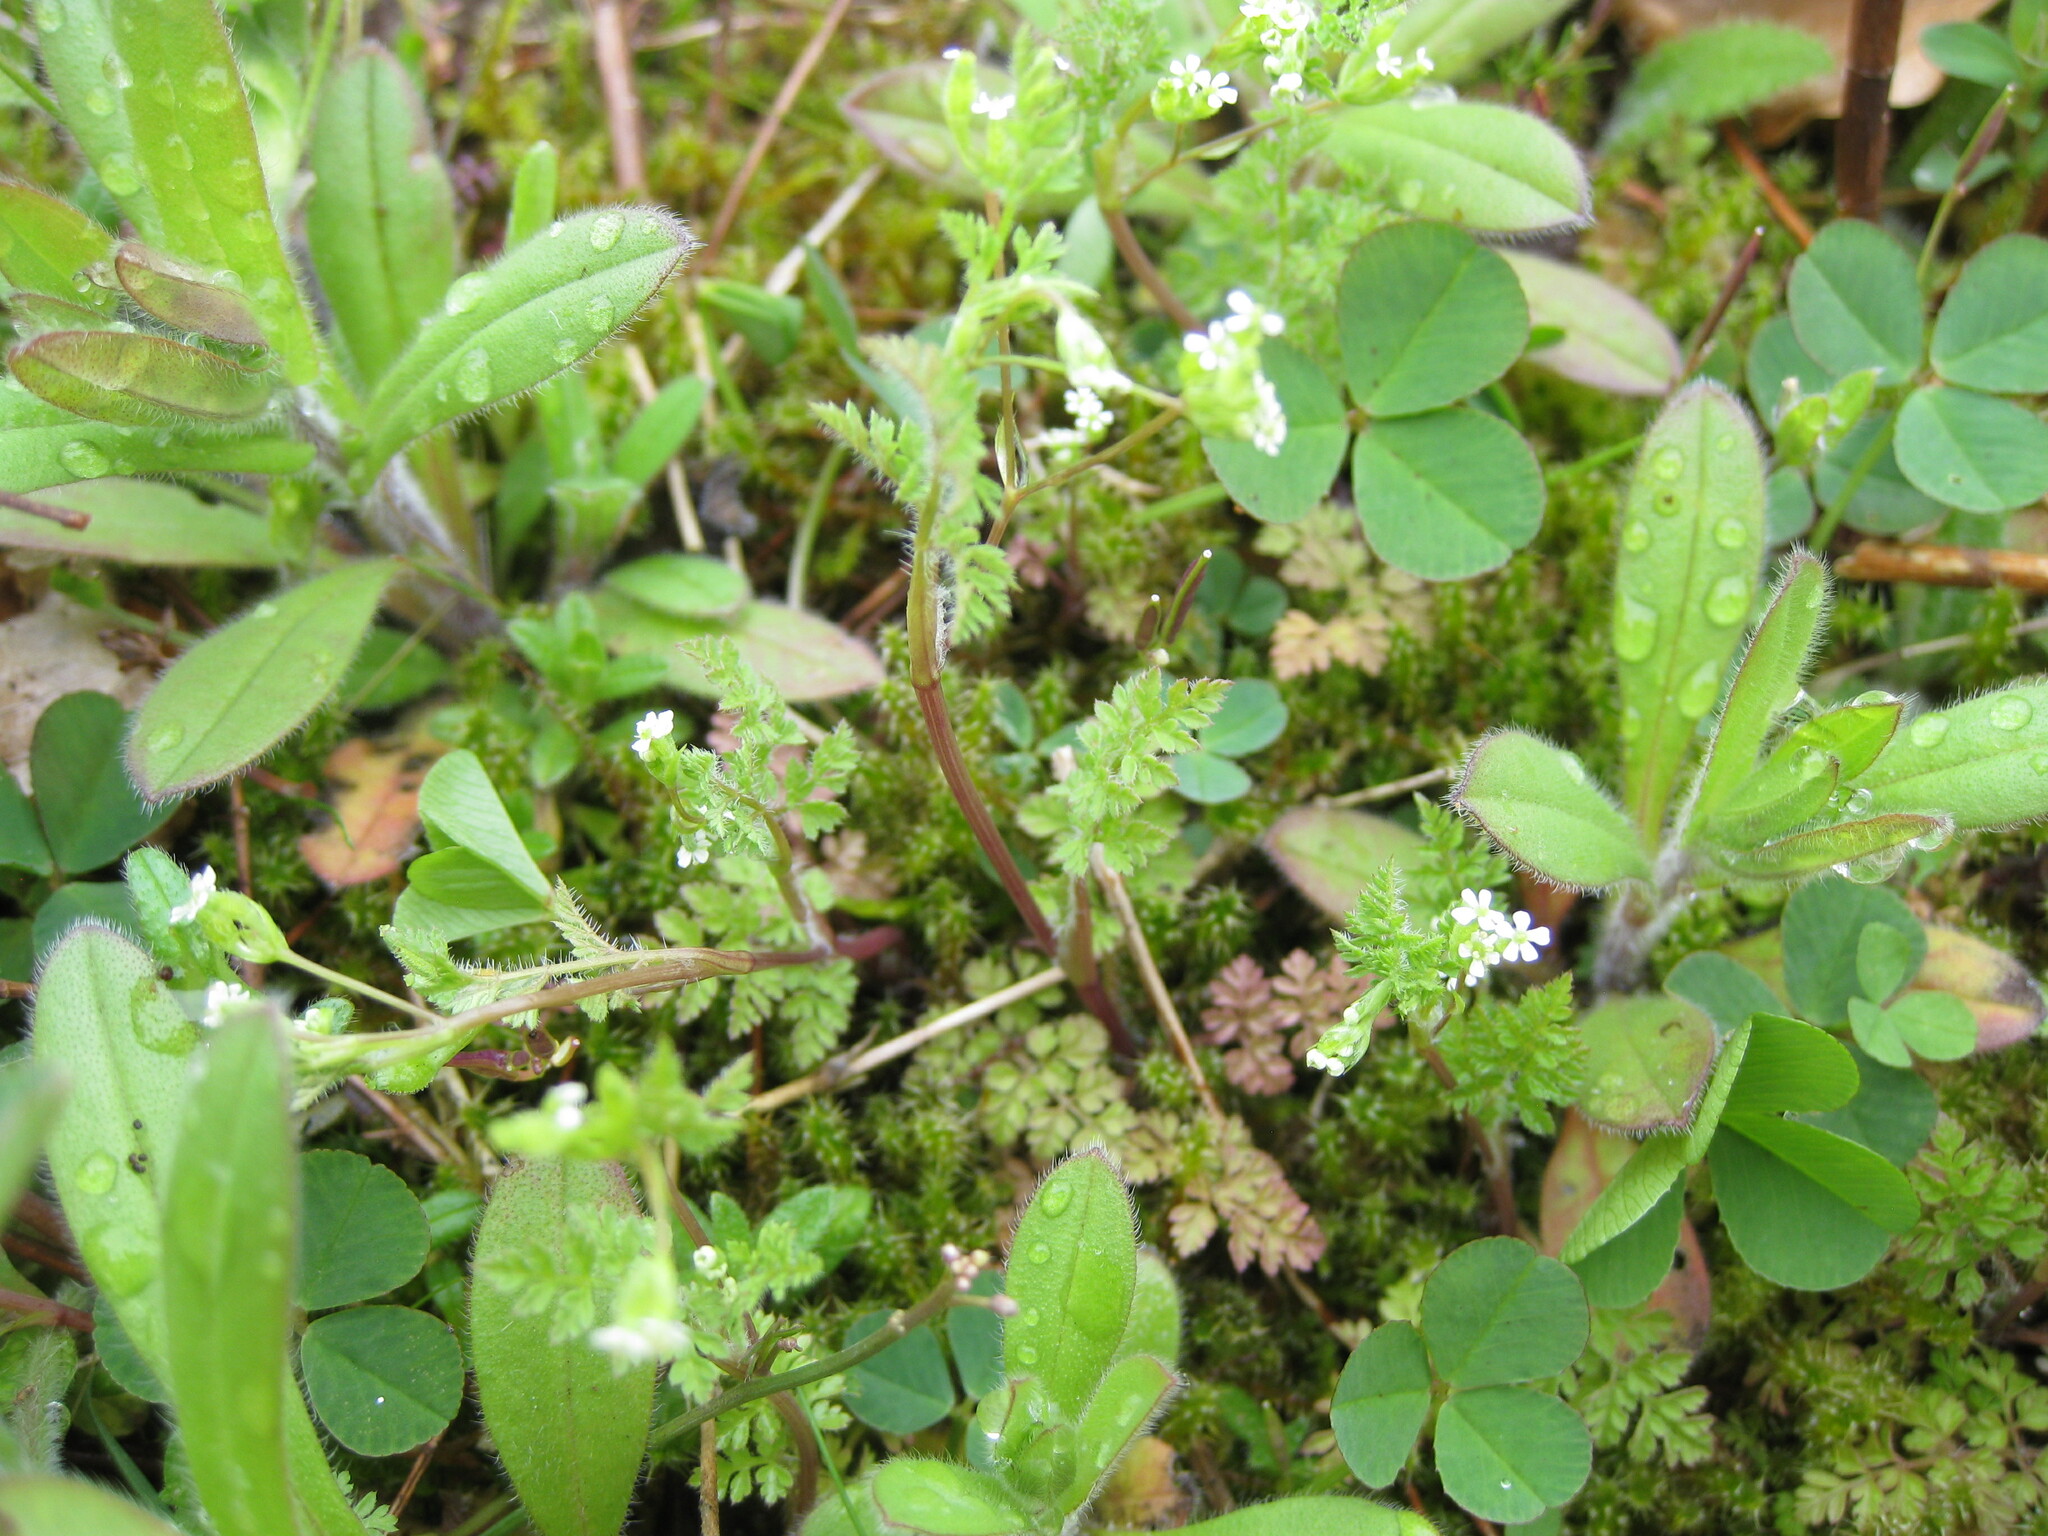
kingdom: Plantae
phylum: Tracheophyta
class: Magnoliopsida
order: Apiales
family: Apiaceae
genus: Anthriscus
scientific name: Anthriscus caucalis
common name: Bur chervil
